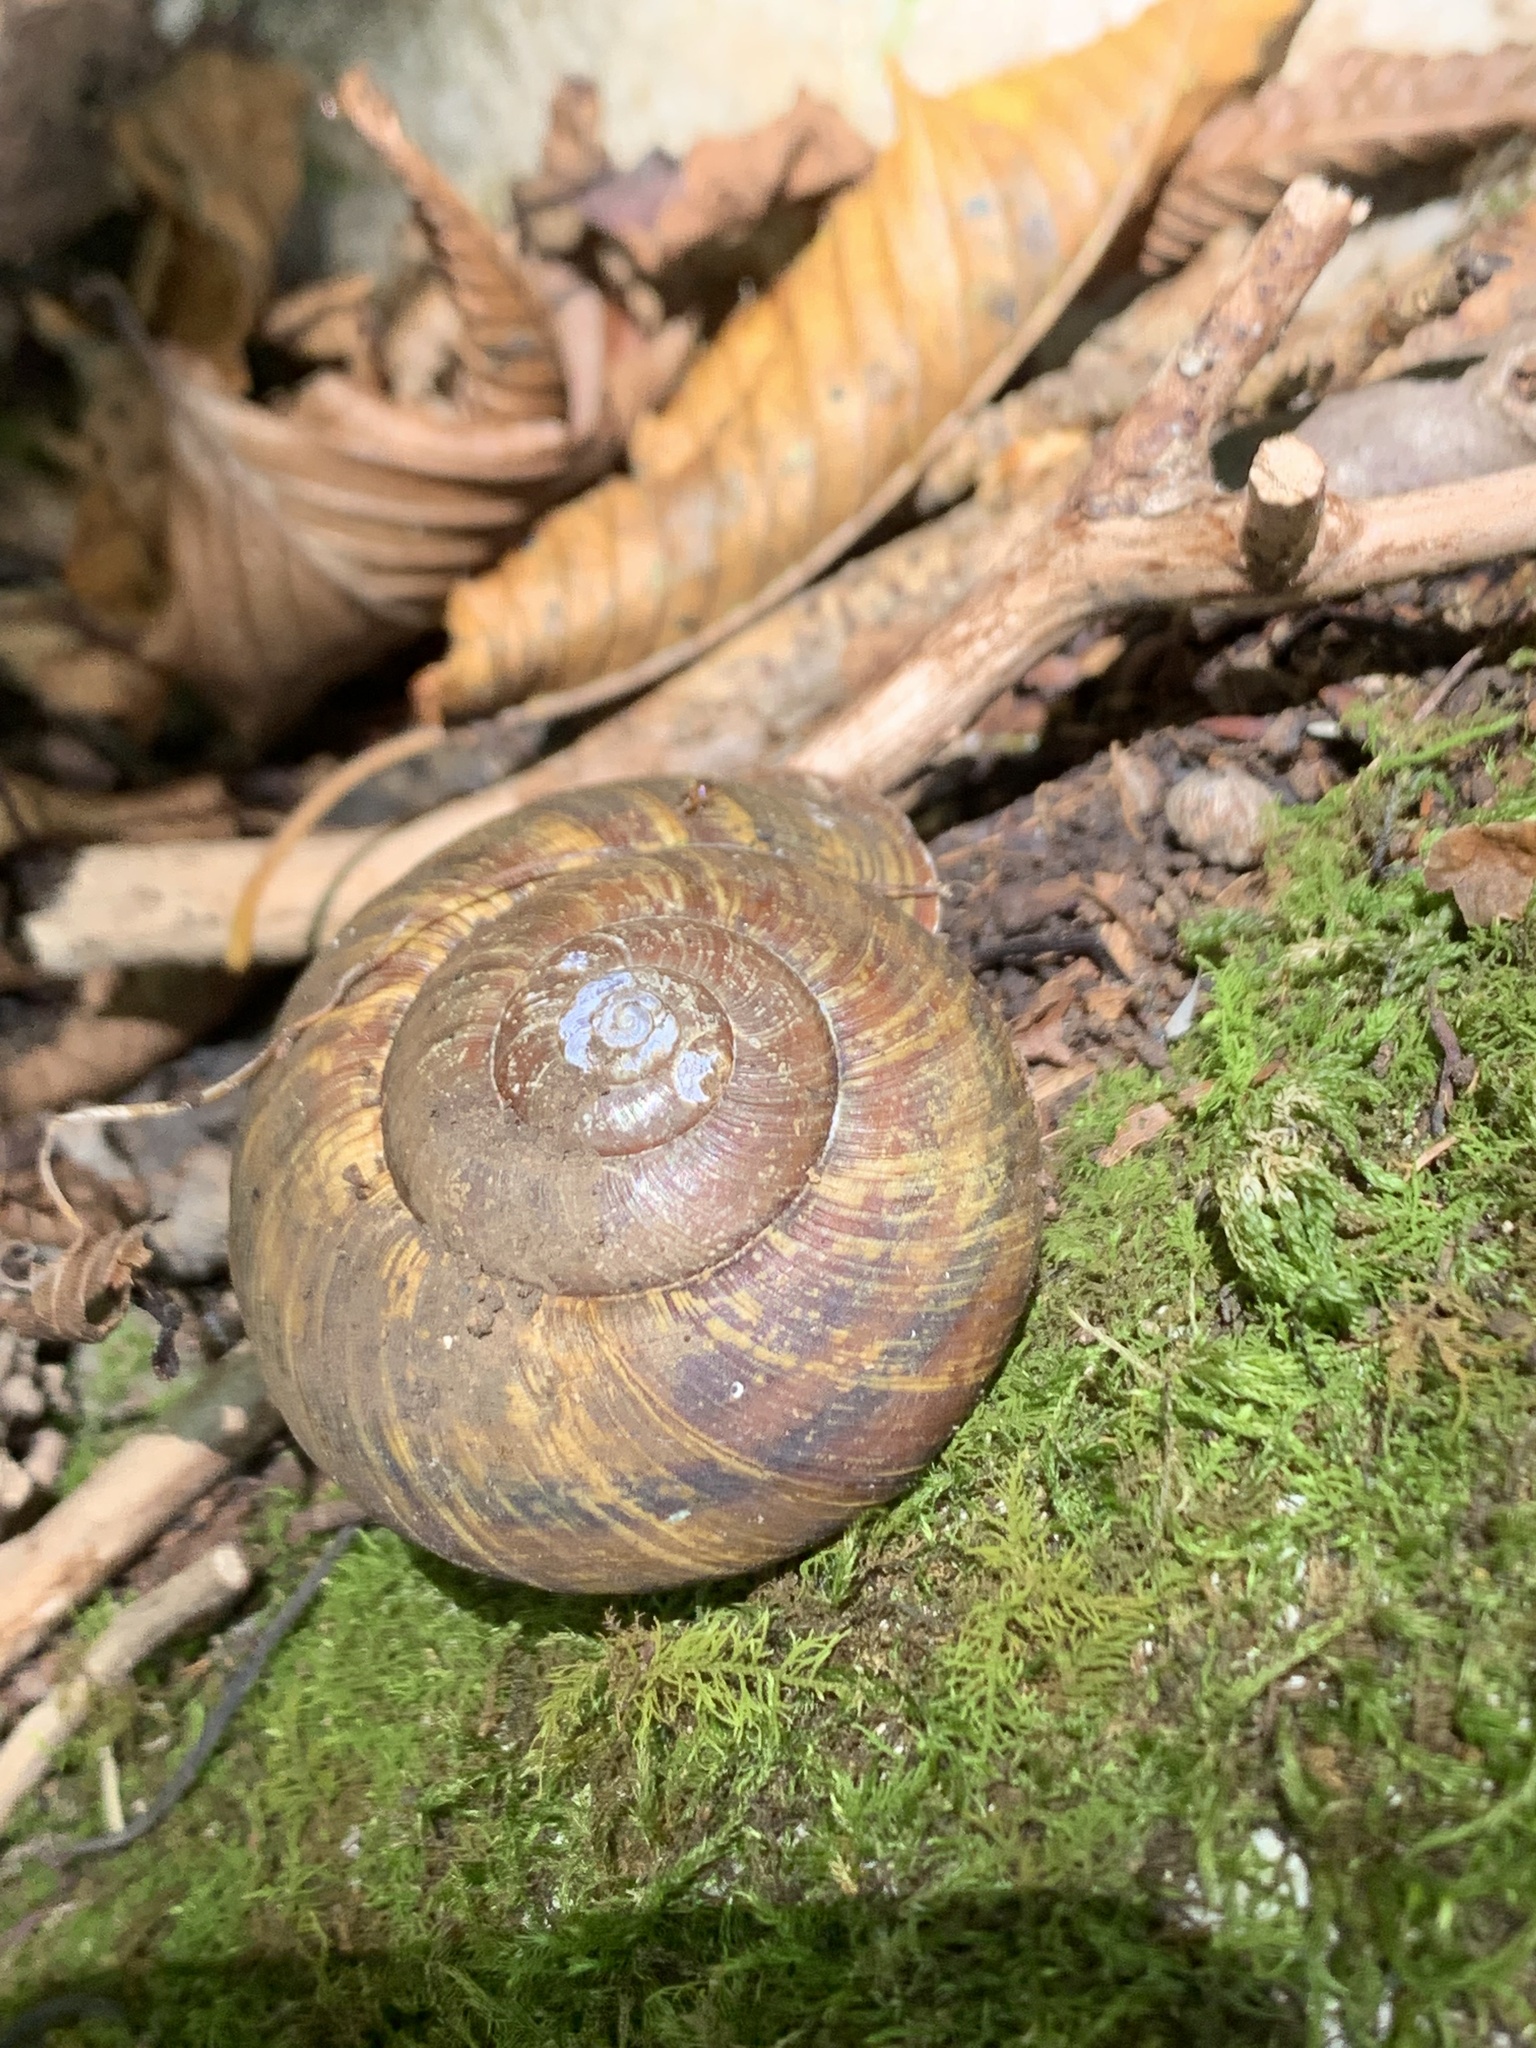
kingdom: Animalia
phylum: Mollusca
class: Gastropoda
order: Stylommatophora
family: Camaenidae
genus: Euhadra
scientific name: Euhadra senckenbergiana
